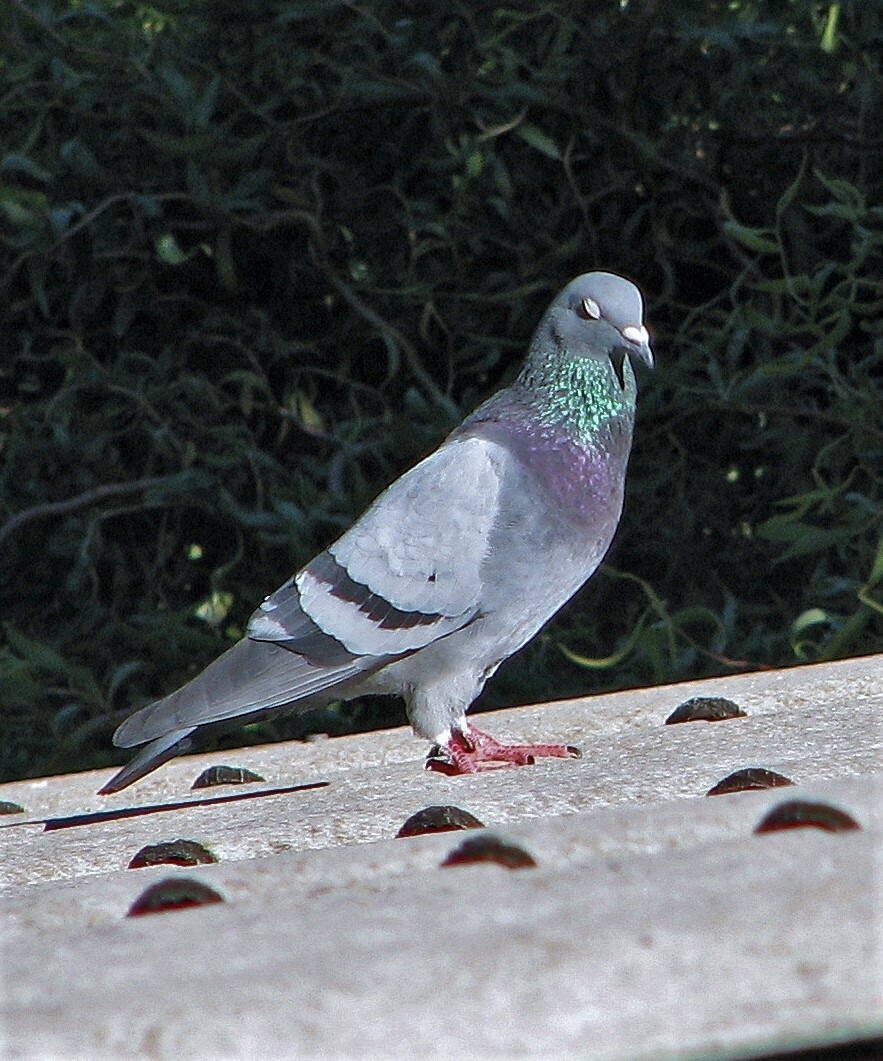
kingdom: Animalia
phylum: Chordata
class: Aves
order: Columbiformes
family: Columbidae
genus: Columba
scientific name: Columba livia
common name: Rock pigeon
